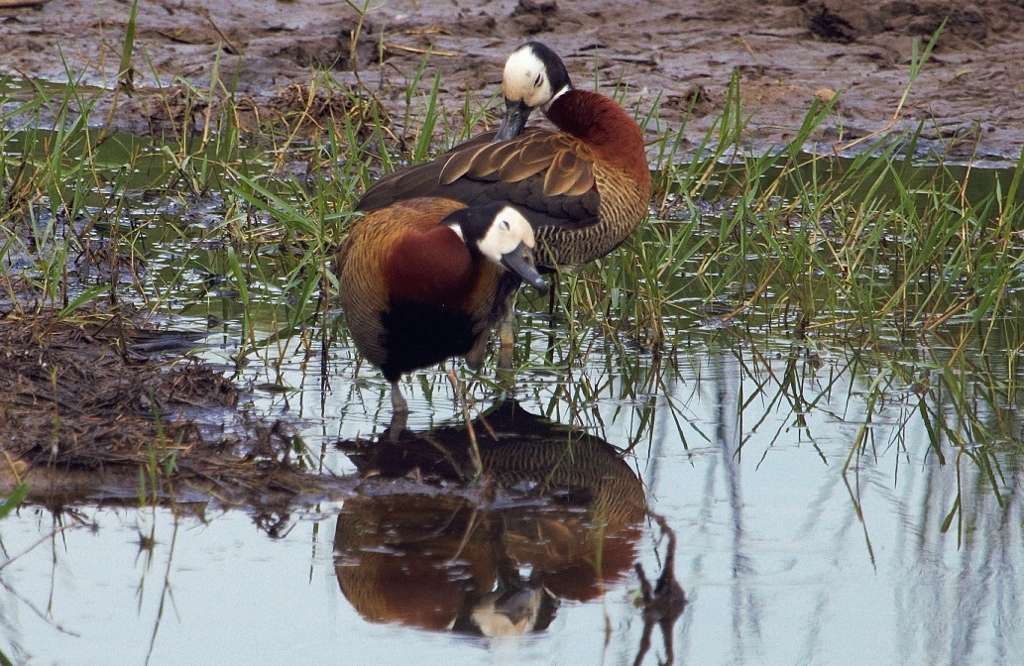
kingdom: Animalia
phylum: Chordata
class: Aves
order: Anseriformes
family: Anatidae
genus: Dendrocygna
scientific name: Dendrocygna viduata
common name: White-faced whistling duck
